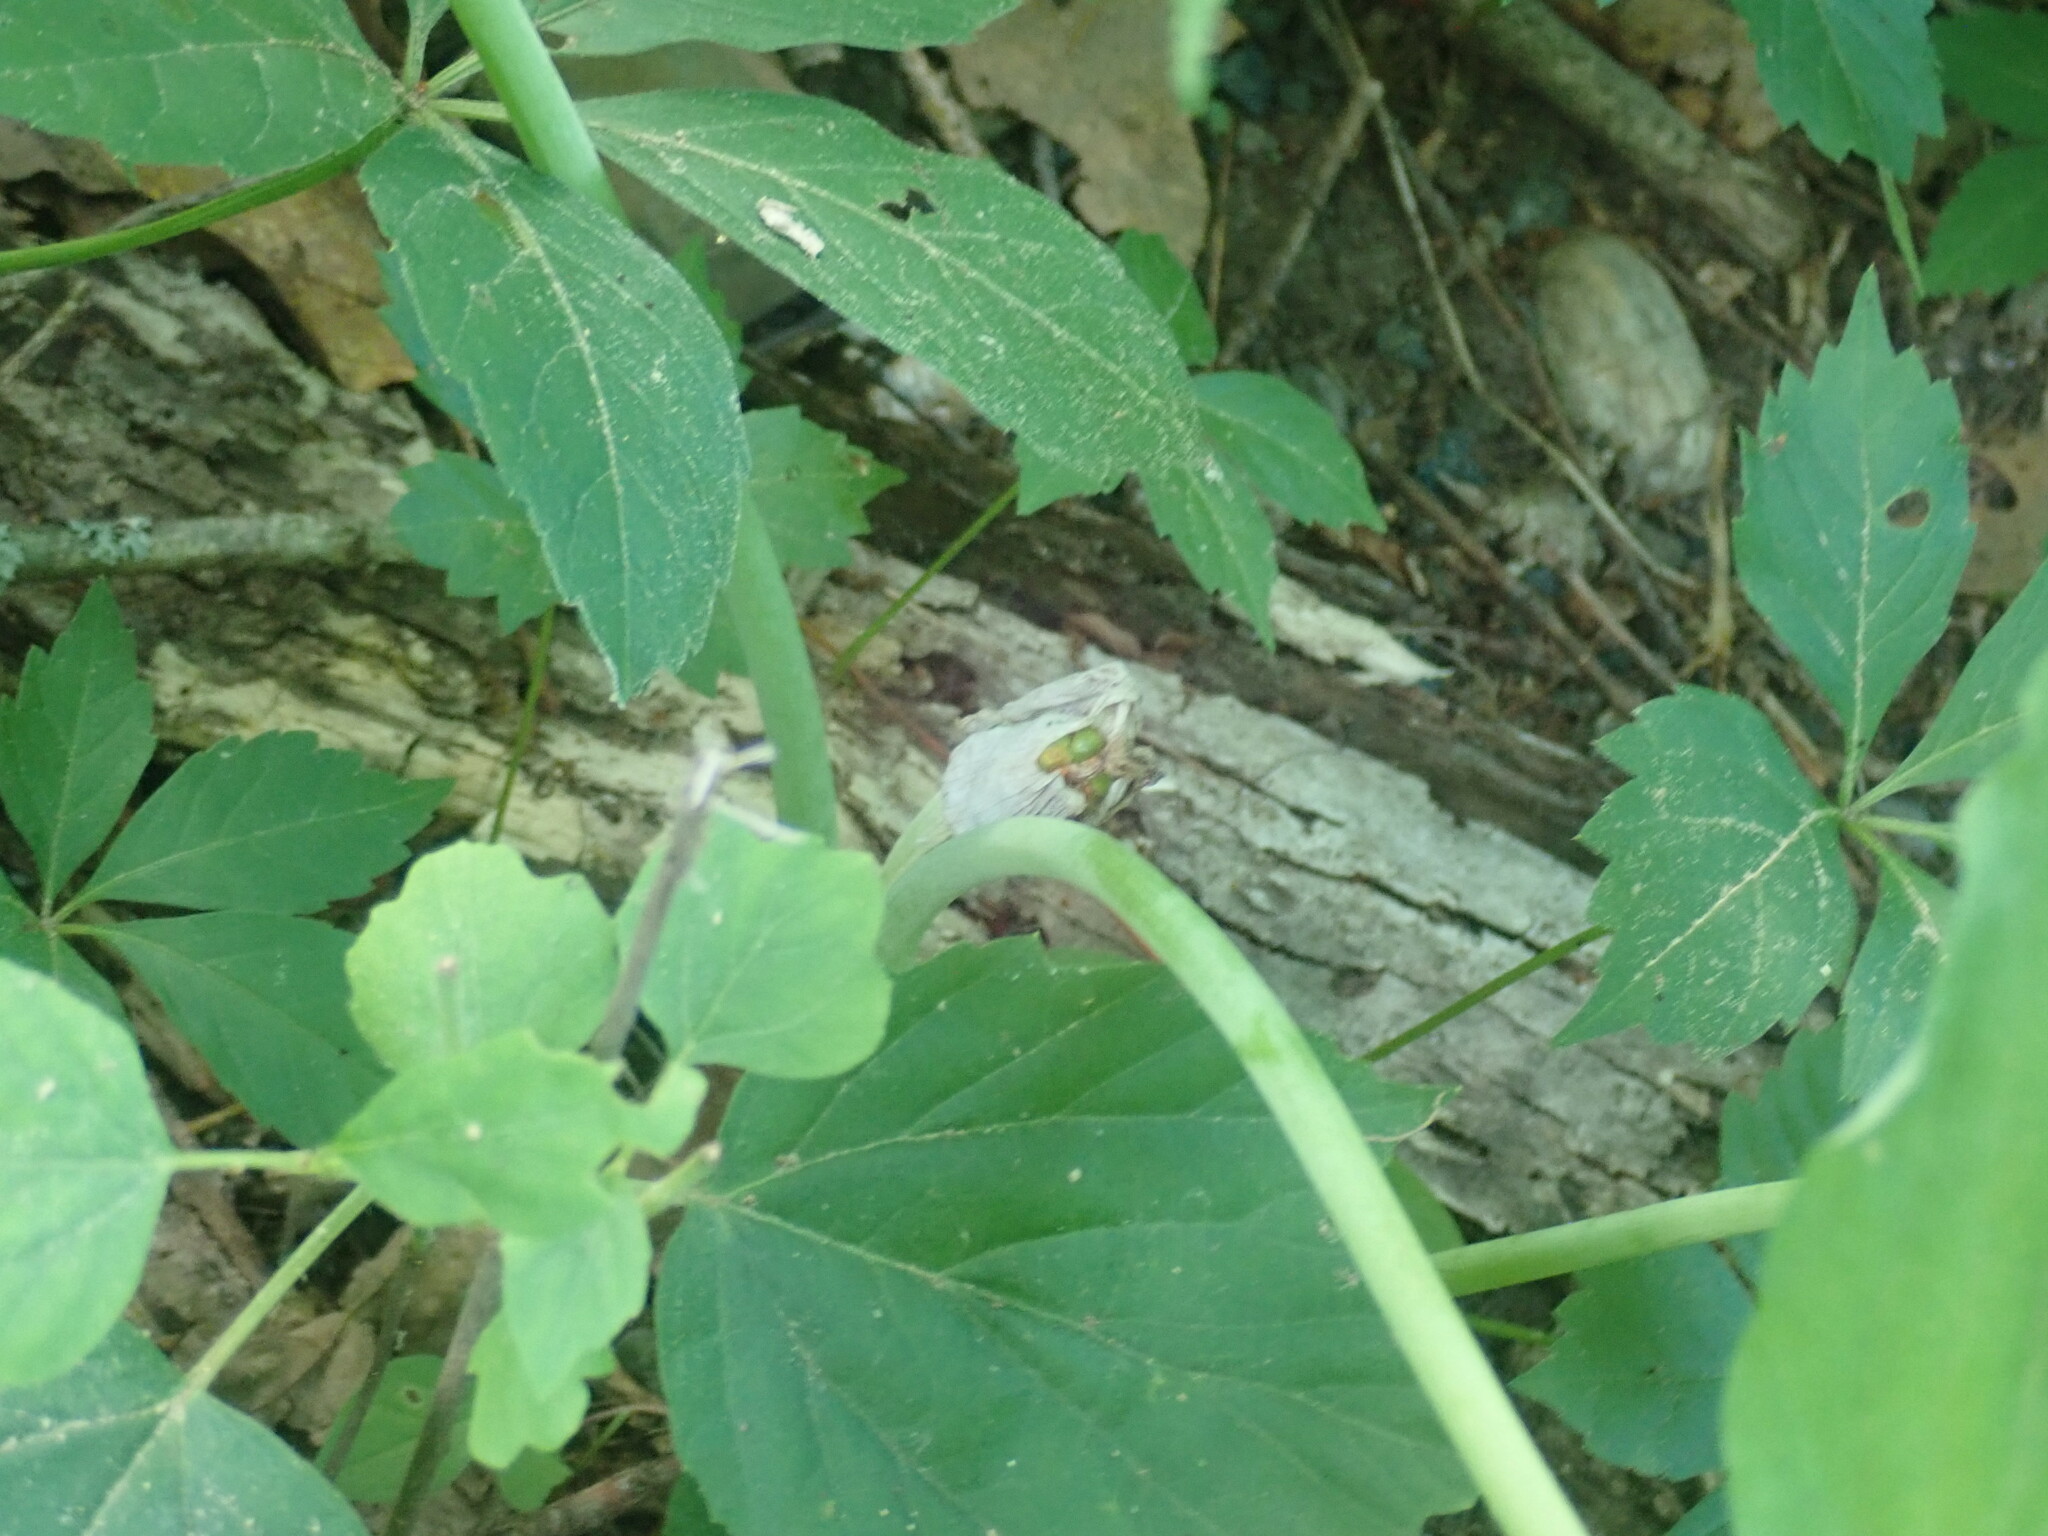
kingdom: Plantae
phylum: Tracheophyta
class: Liliopsida
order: Alismatales
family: Araceae
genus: Arisaema
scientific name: Arisaema triphyllum
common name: Jack-in-the-pulpit
